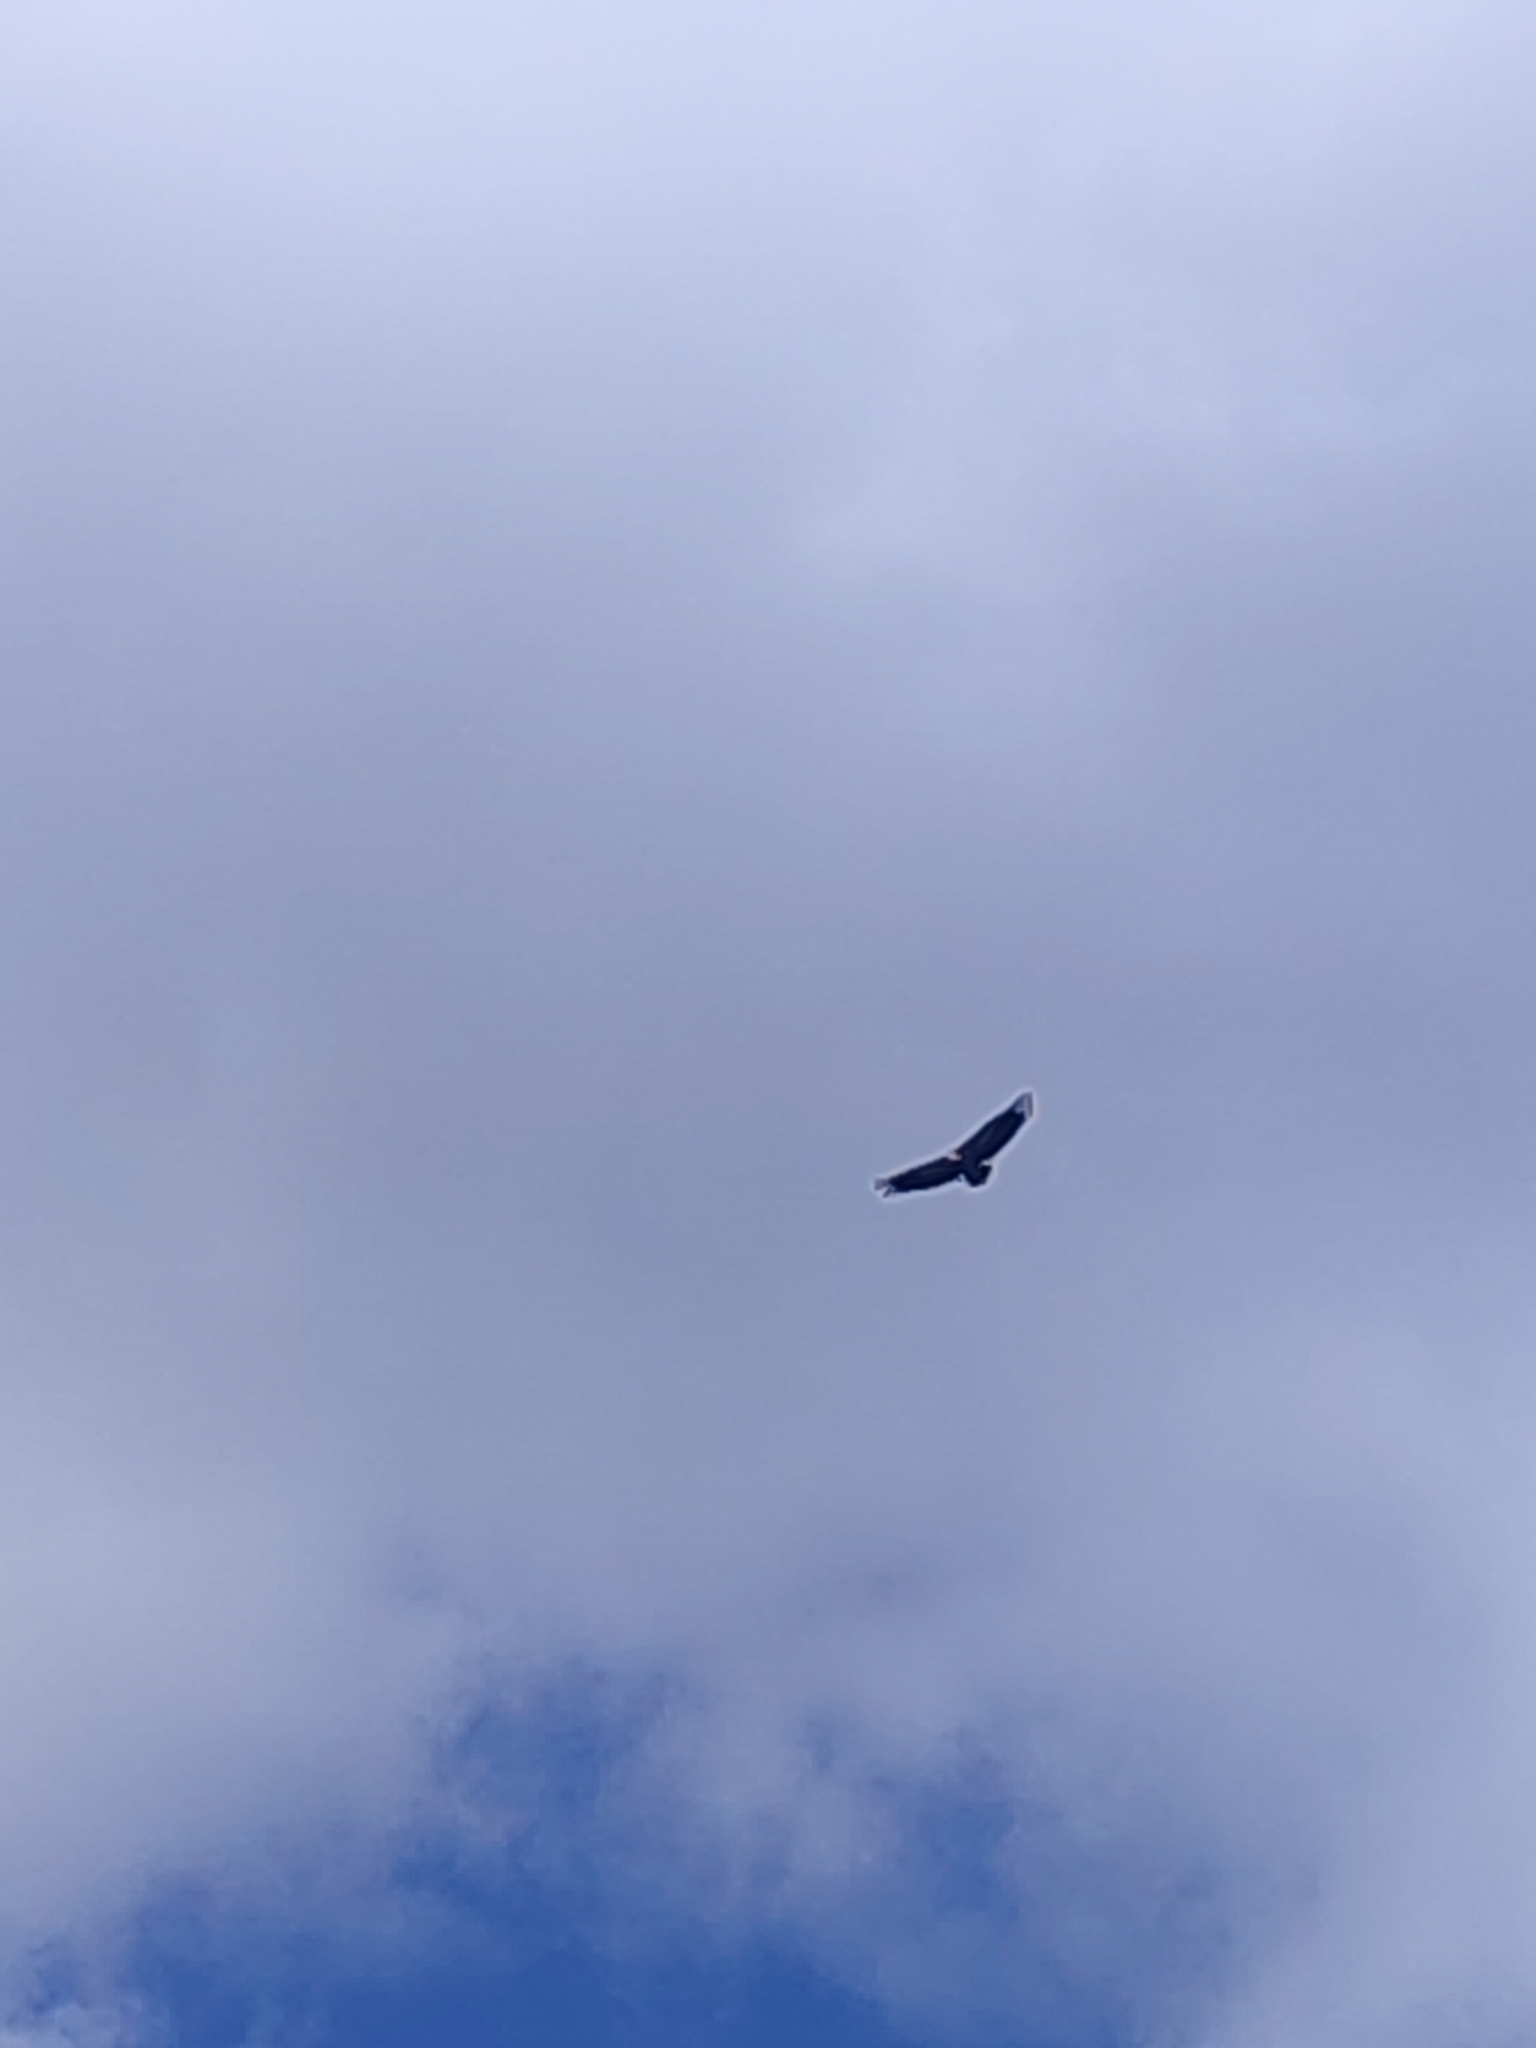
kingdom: Animalia
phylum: Chordata
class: Aves
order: Accipitriformes
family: Accipitridae
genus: Gyps
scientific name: Gyps fulvus
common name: Griffon vulture
